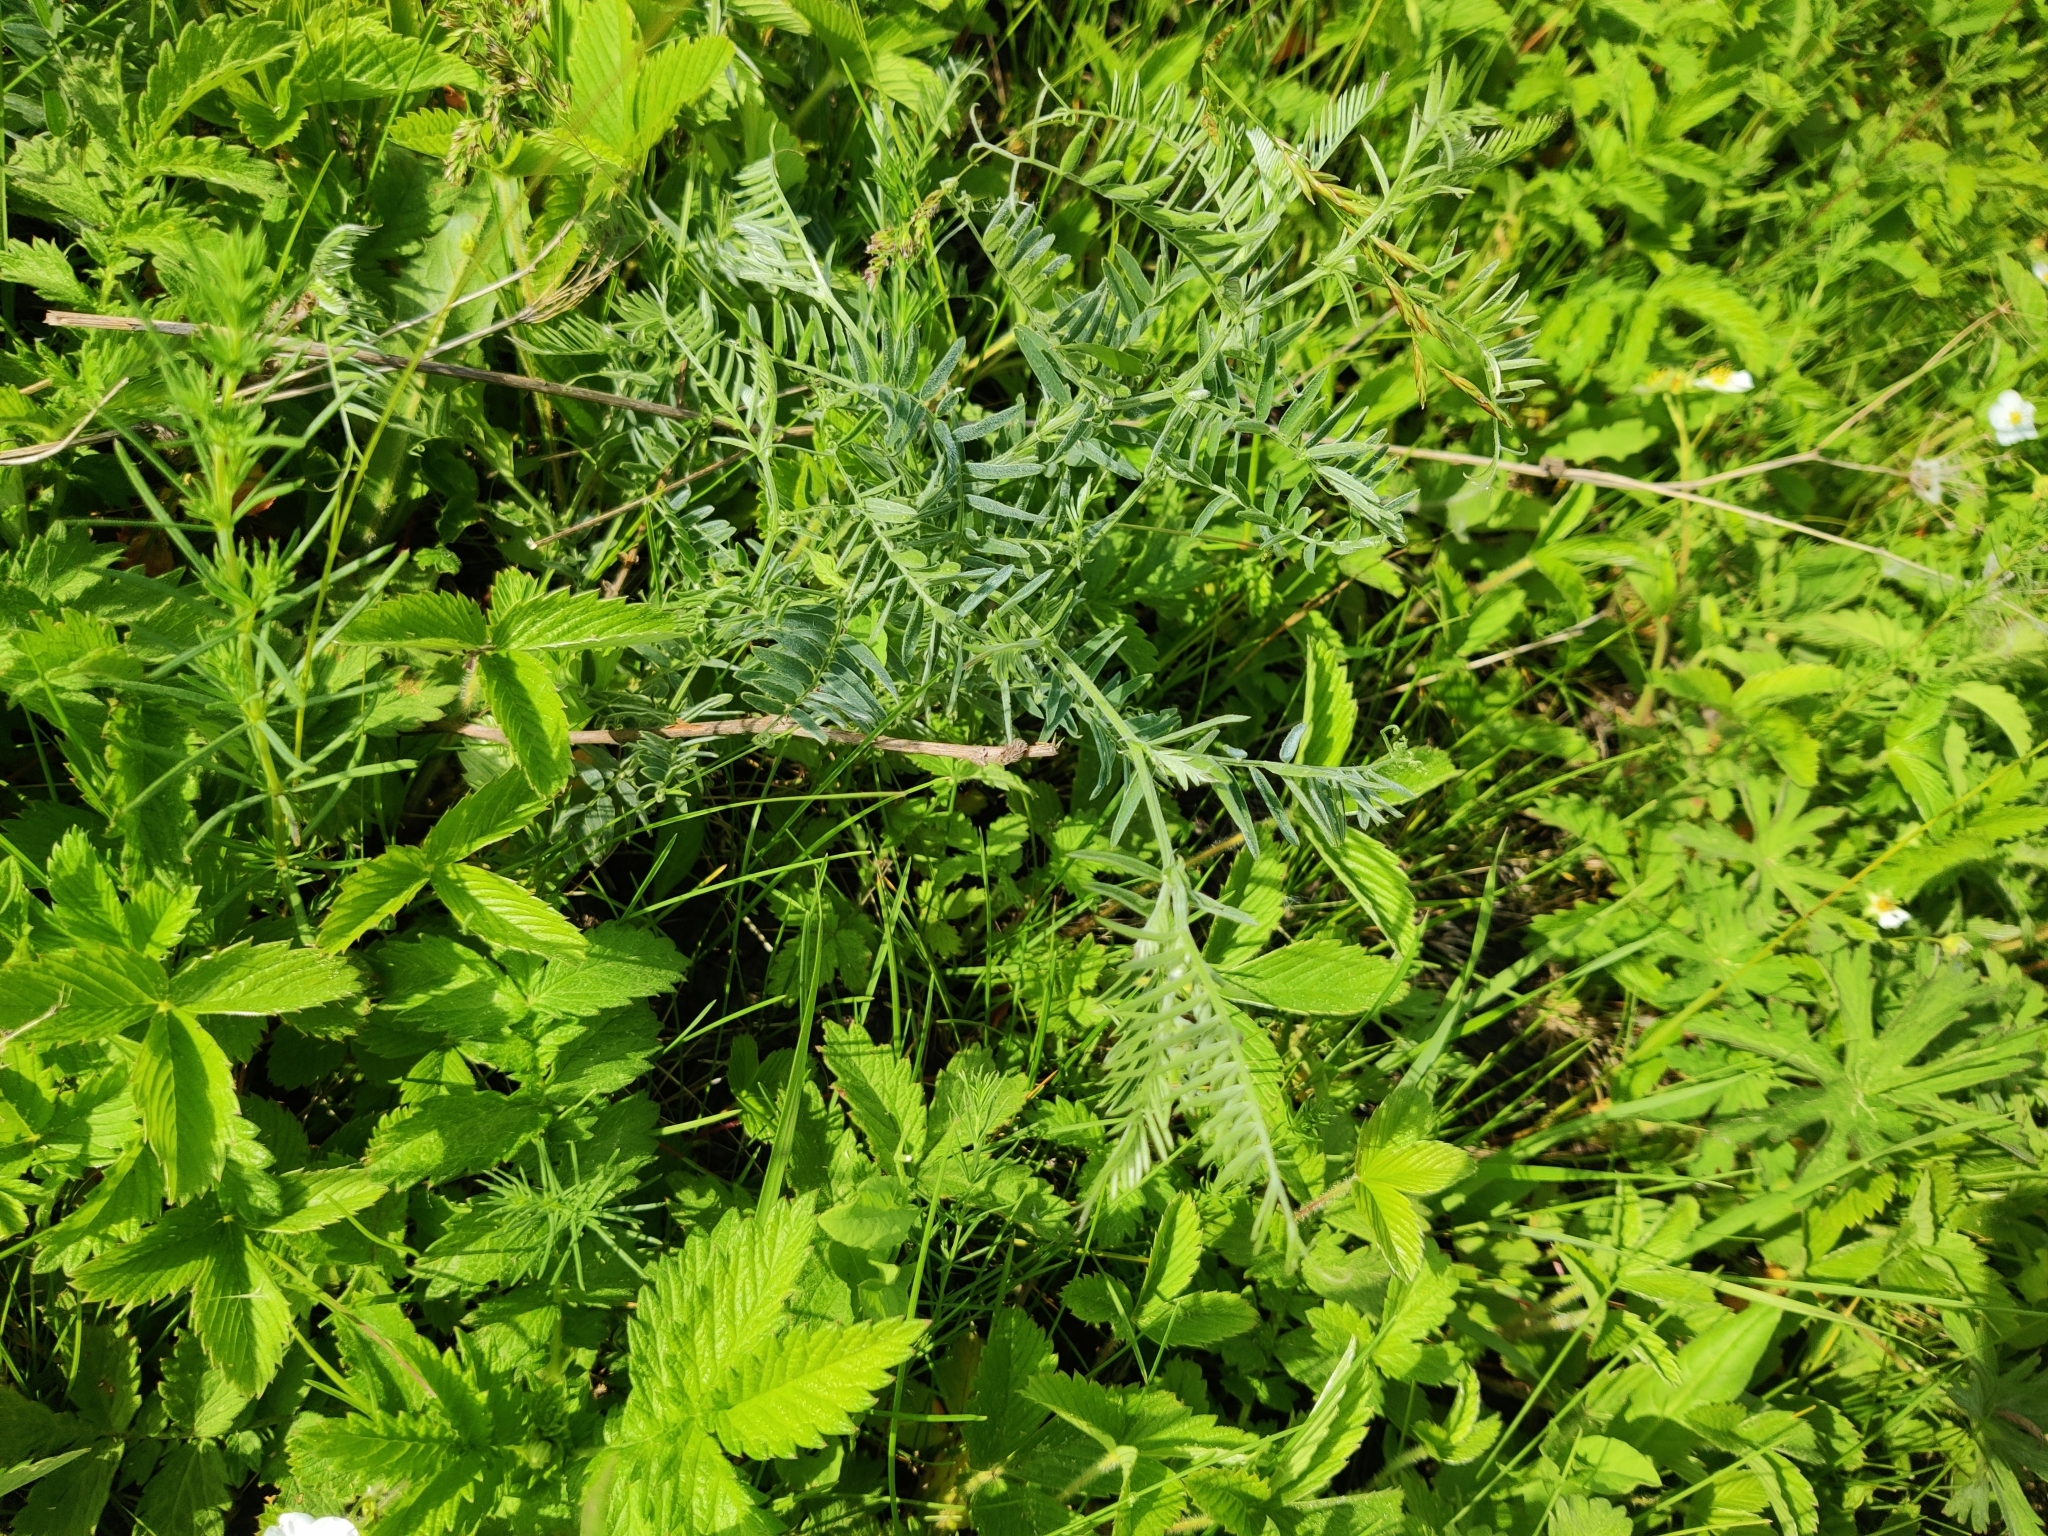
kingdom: Plantae
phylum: Tracheophyta
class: Magnoliopsida
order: Fabales
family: Fabaceae
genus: Vicia
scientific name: Vicia cracca
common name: Bird vetch
